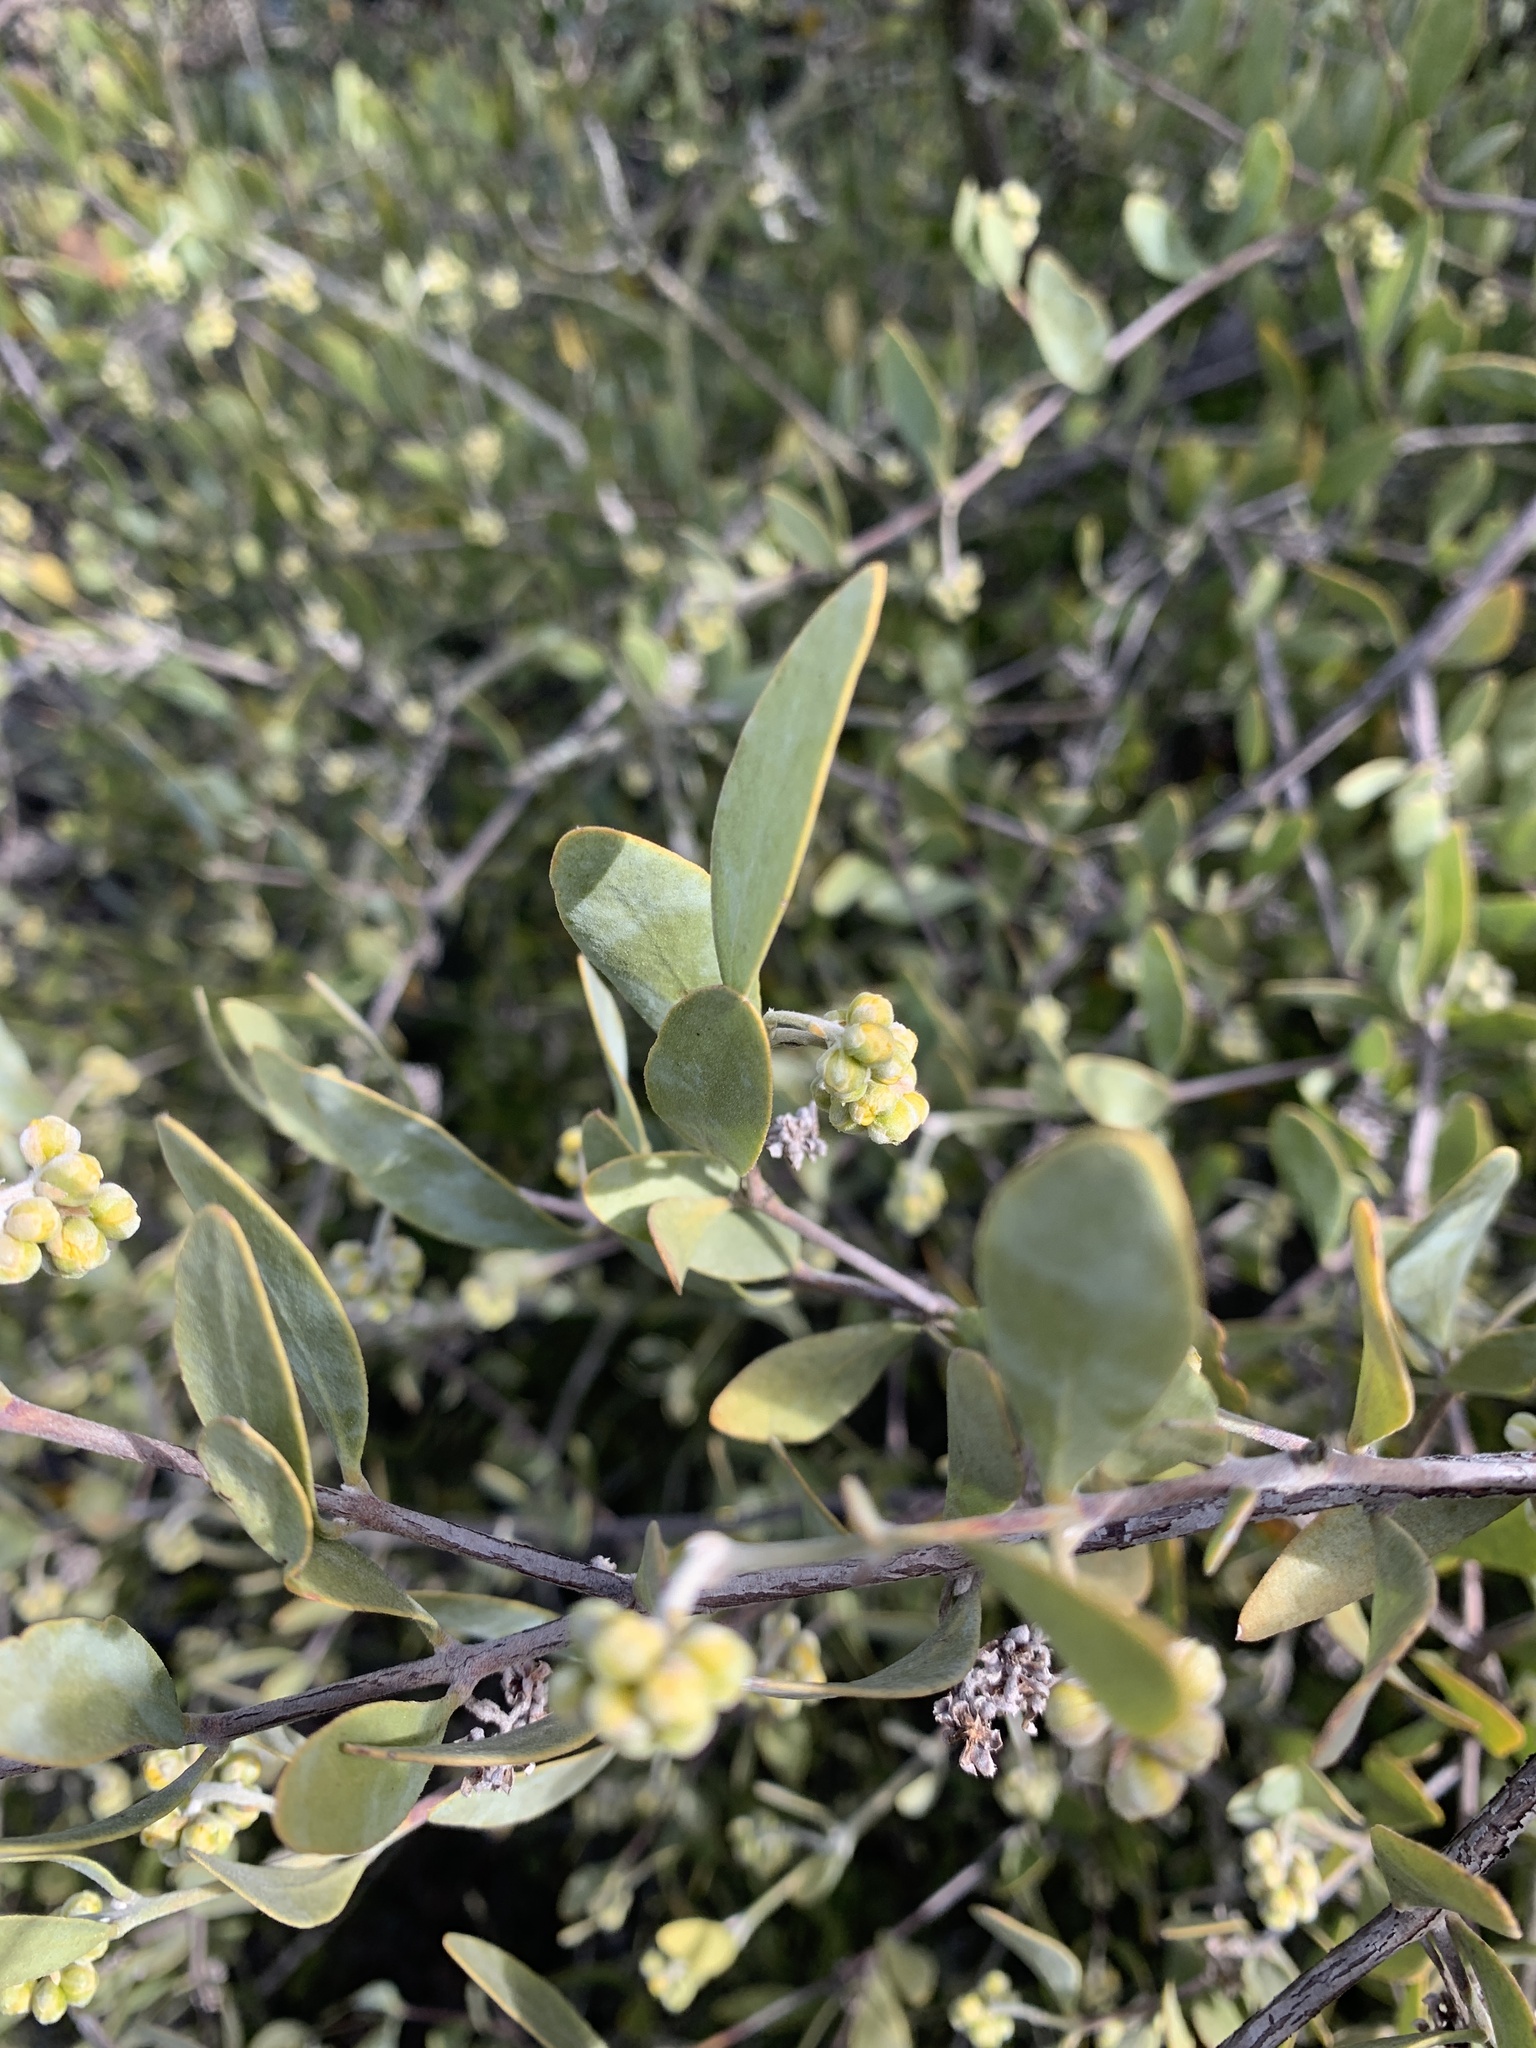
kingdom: Plantae
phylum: Tracheophyta
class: Magnoliopsida
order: Caryophyllales
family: Simmondsiaceae
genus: Simmondsia
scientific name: Simmondsia chinensis
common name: Jojoba
